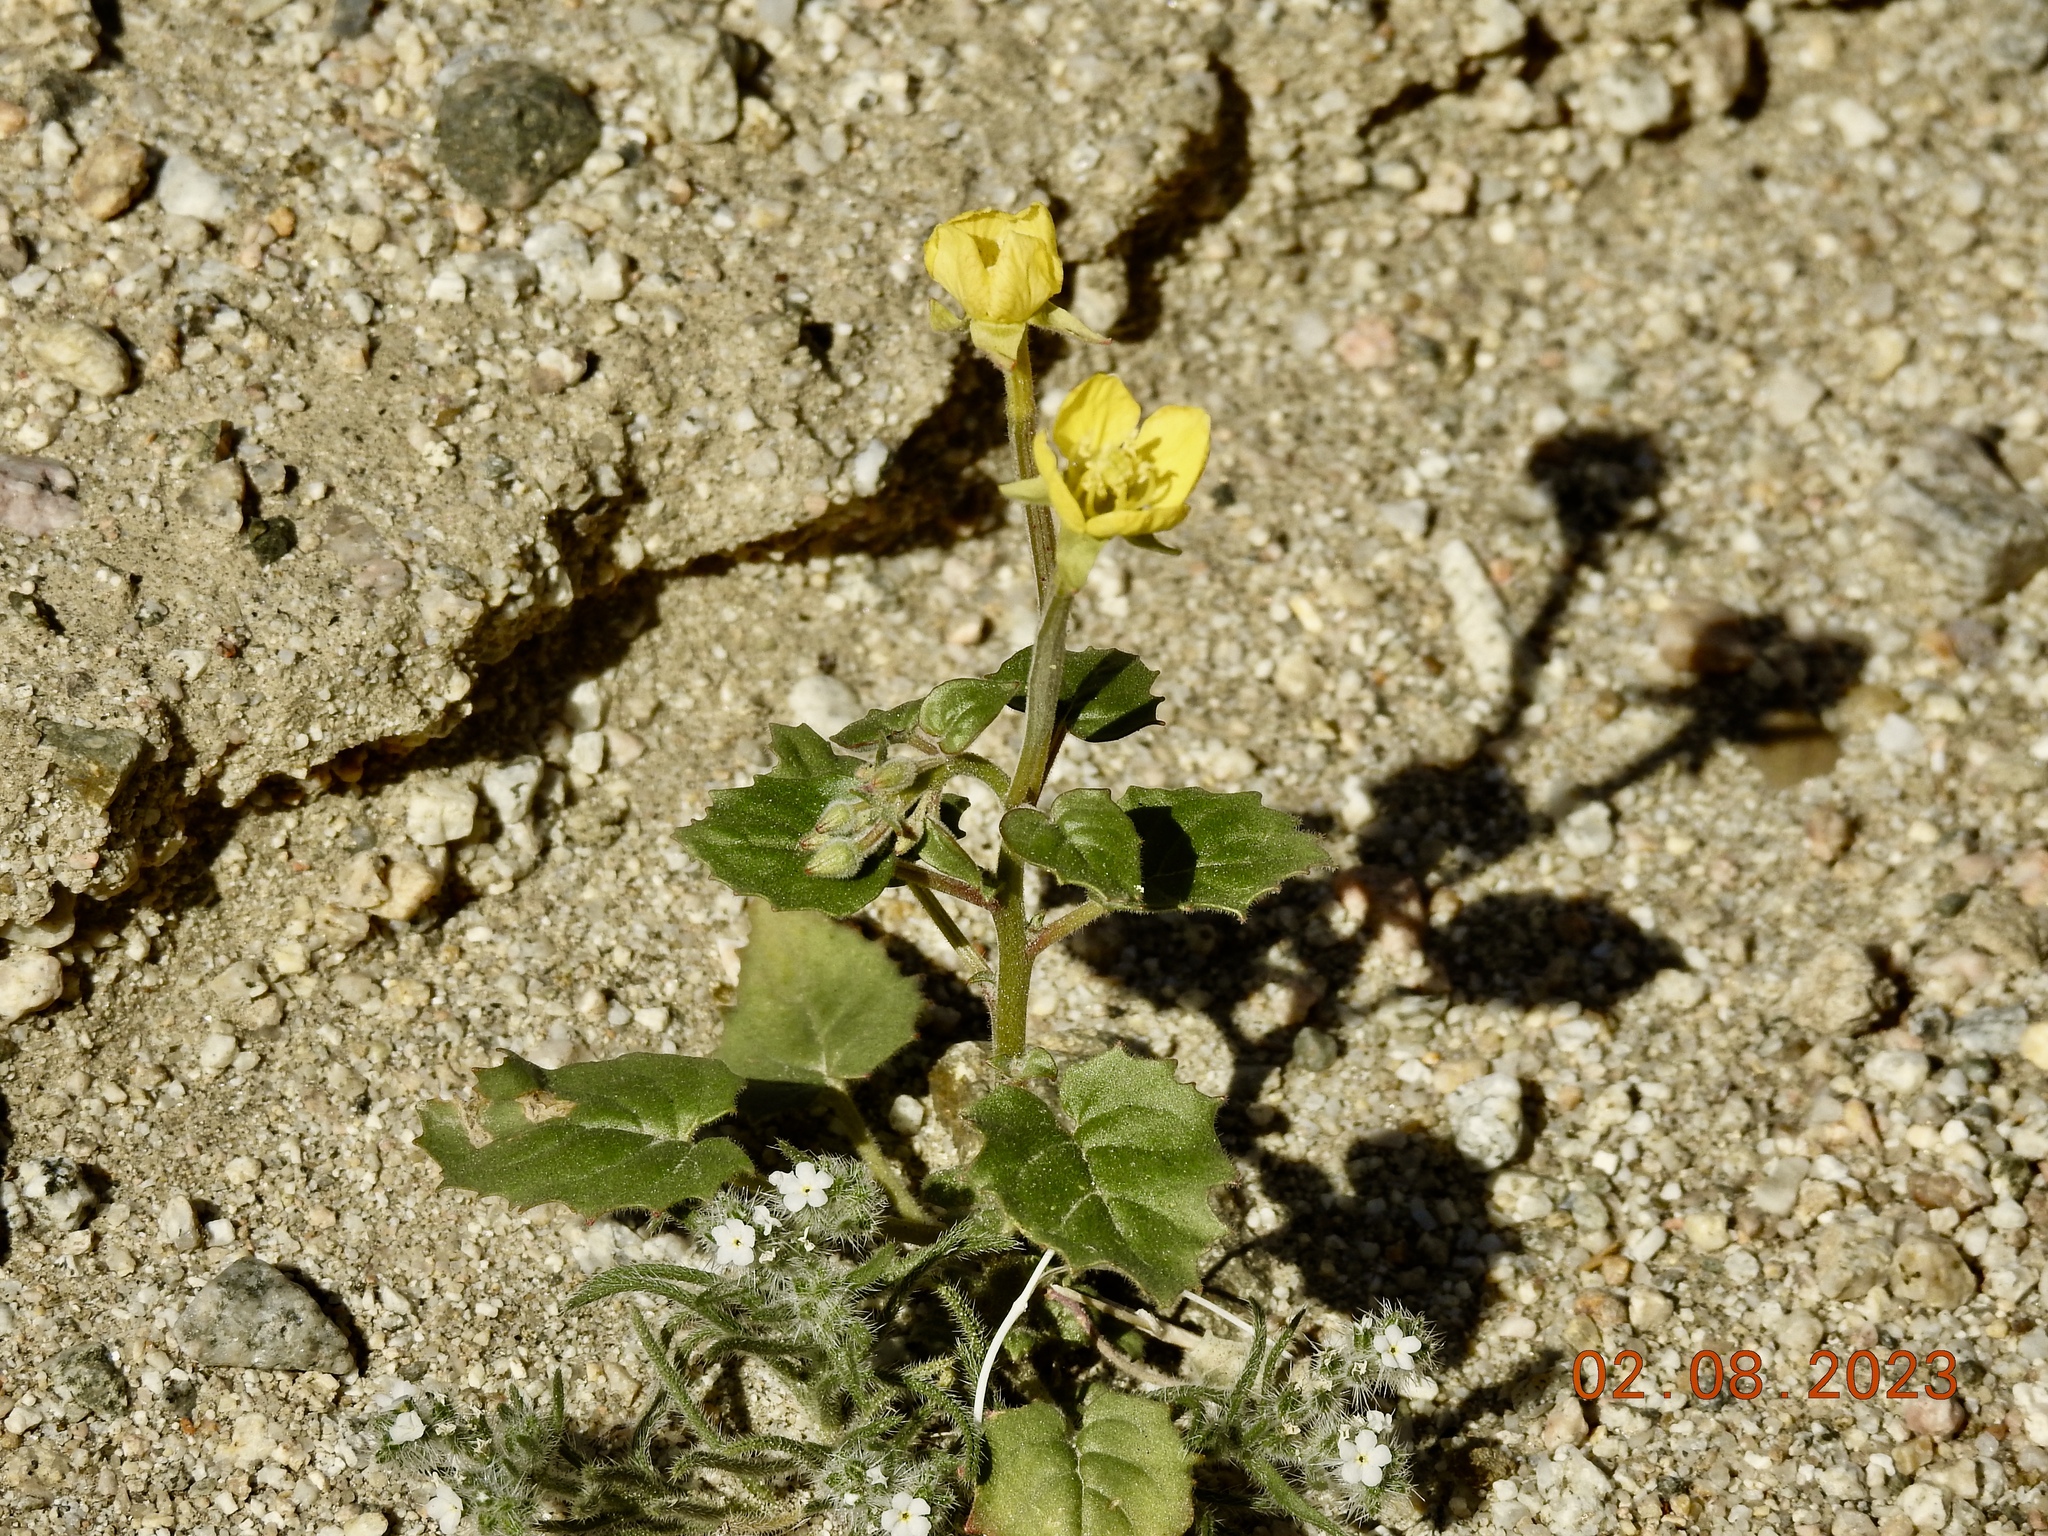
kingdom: Plantae
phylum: Tracheophyta
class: Magnoliopsida
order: Myrtales
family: Onagraceae
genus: Chylismia
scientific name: Chylismia cardiophylla
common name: Heartleaf suncup
